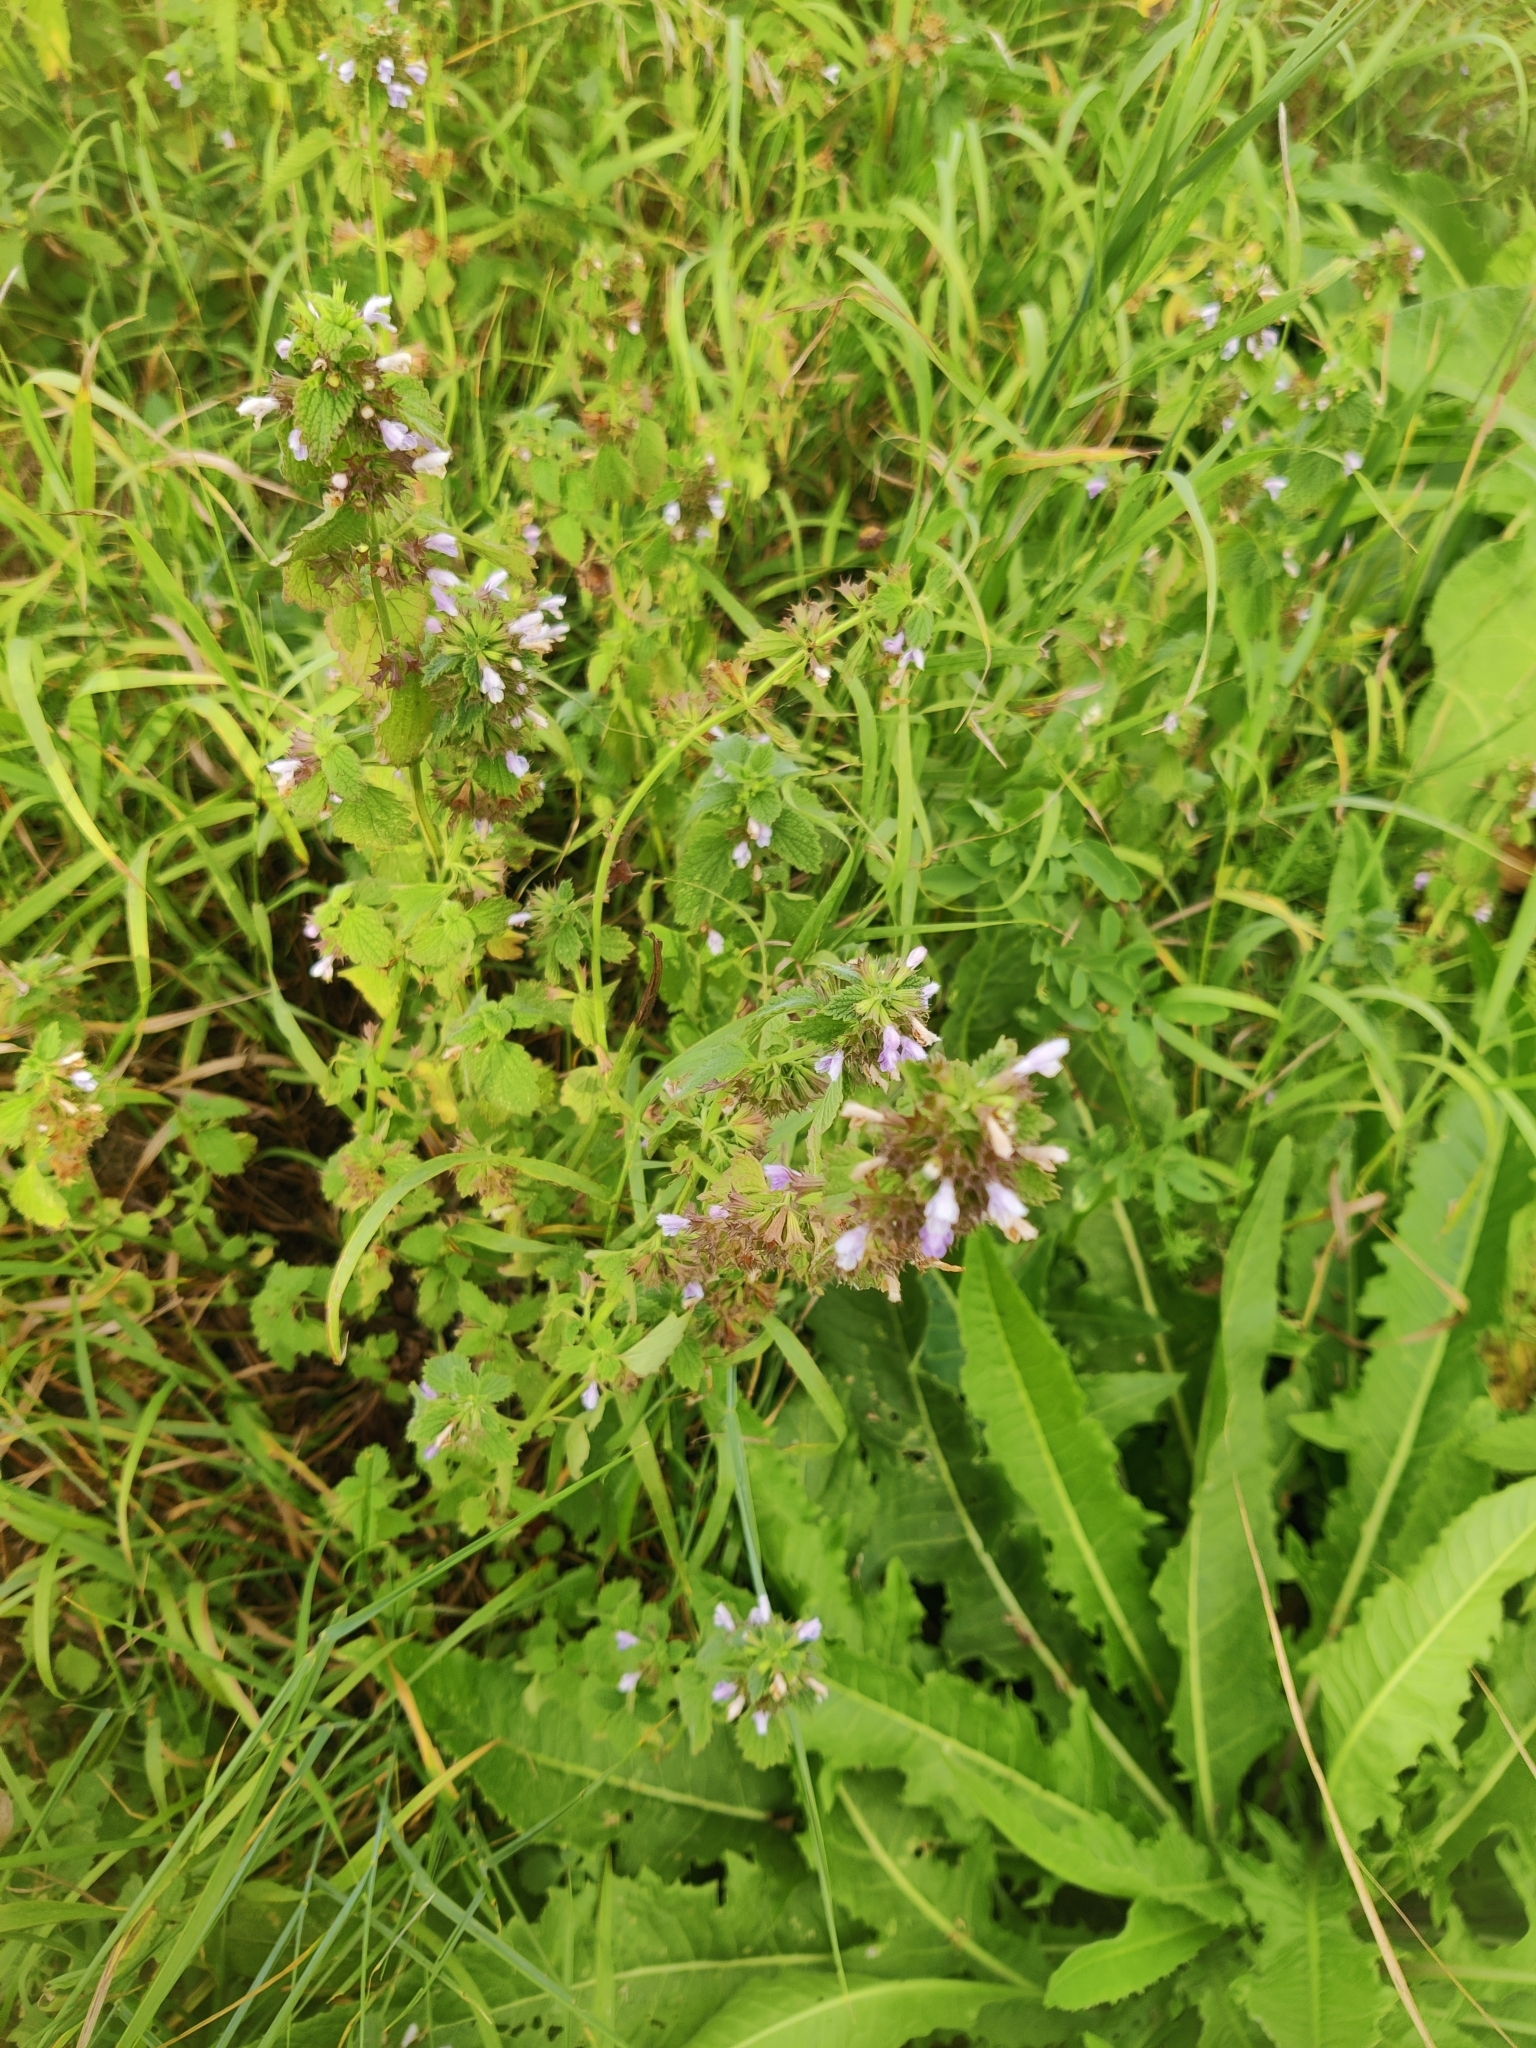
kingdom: Plantae
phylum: Tracheophyta
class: Magnoliopsida
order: Lamiales
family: Lamiaceae
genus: Ballota
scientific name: Ballota nigra
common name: Black horehound
